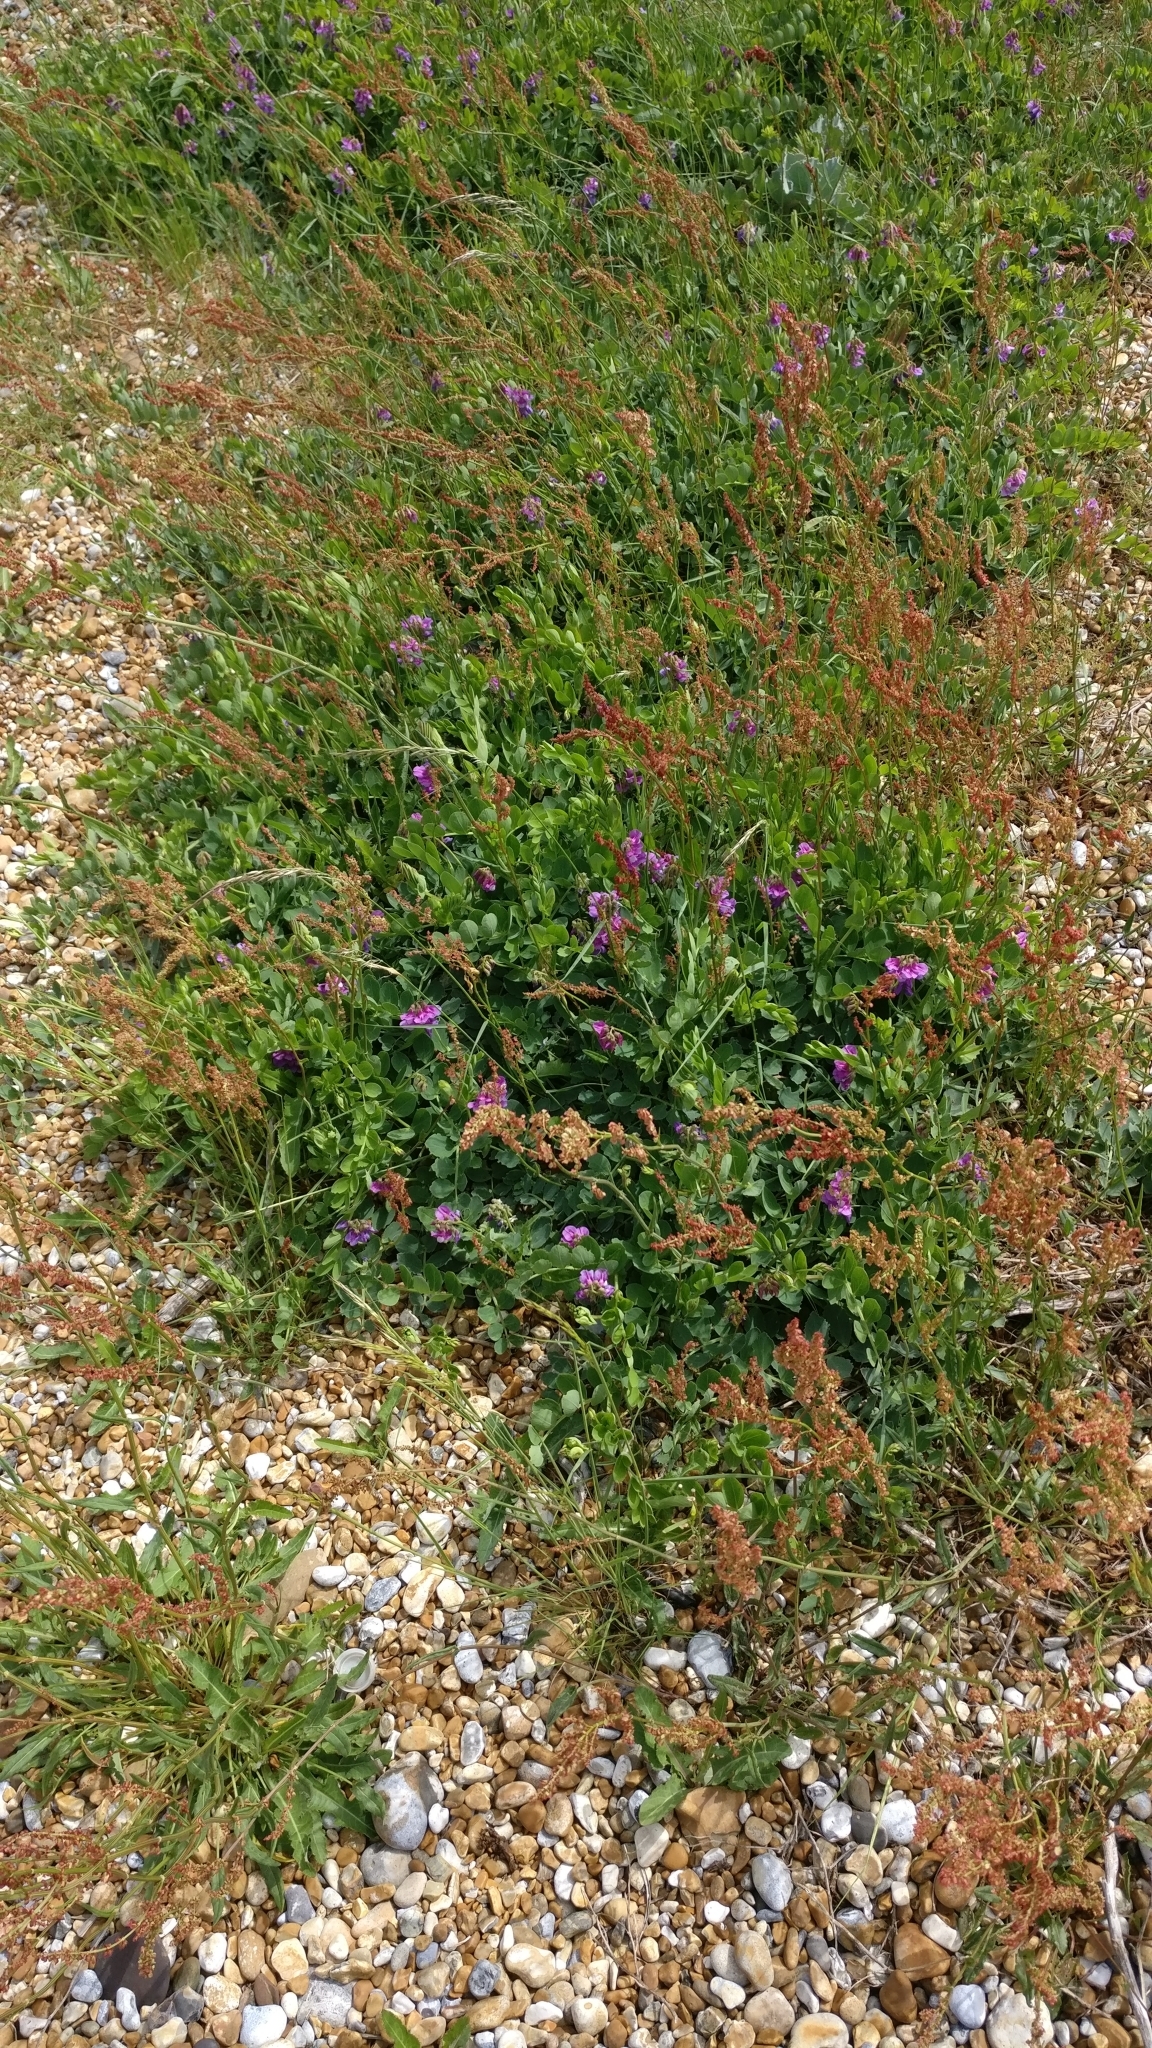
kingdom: Plantae
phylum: Tracheophyta
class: Magnoliopsida
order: Fabales
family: Fabaceae
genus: Lathyrus
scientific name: Lathyrus japonicus
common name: Sea pea
